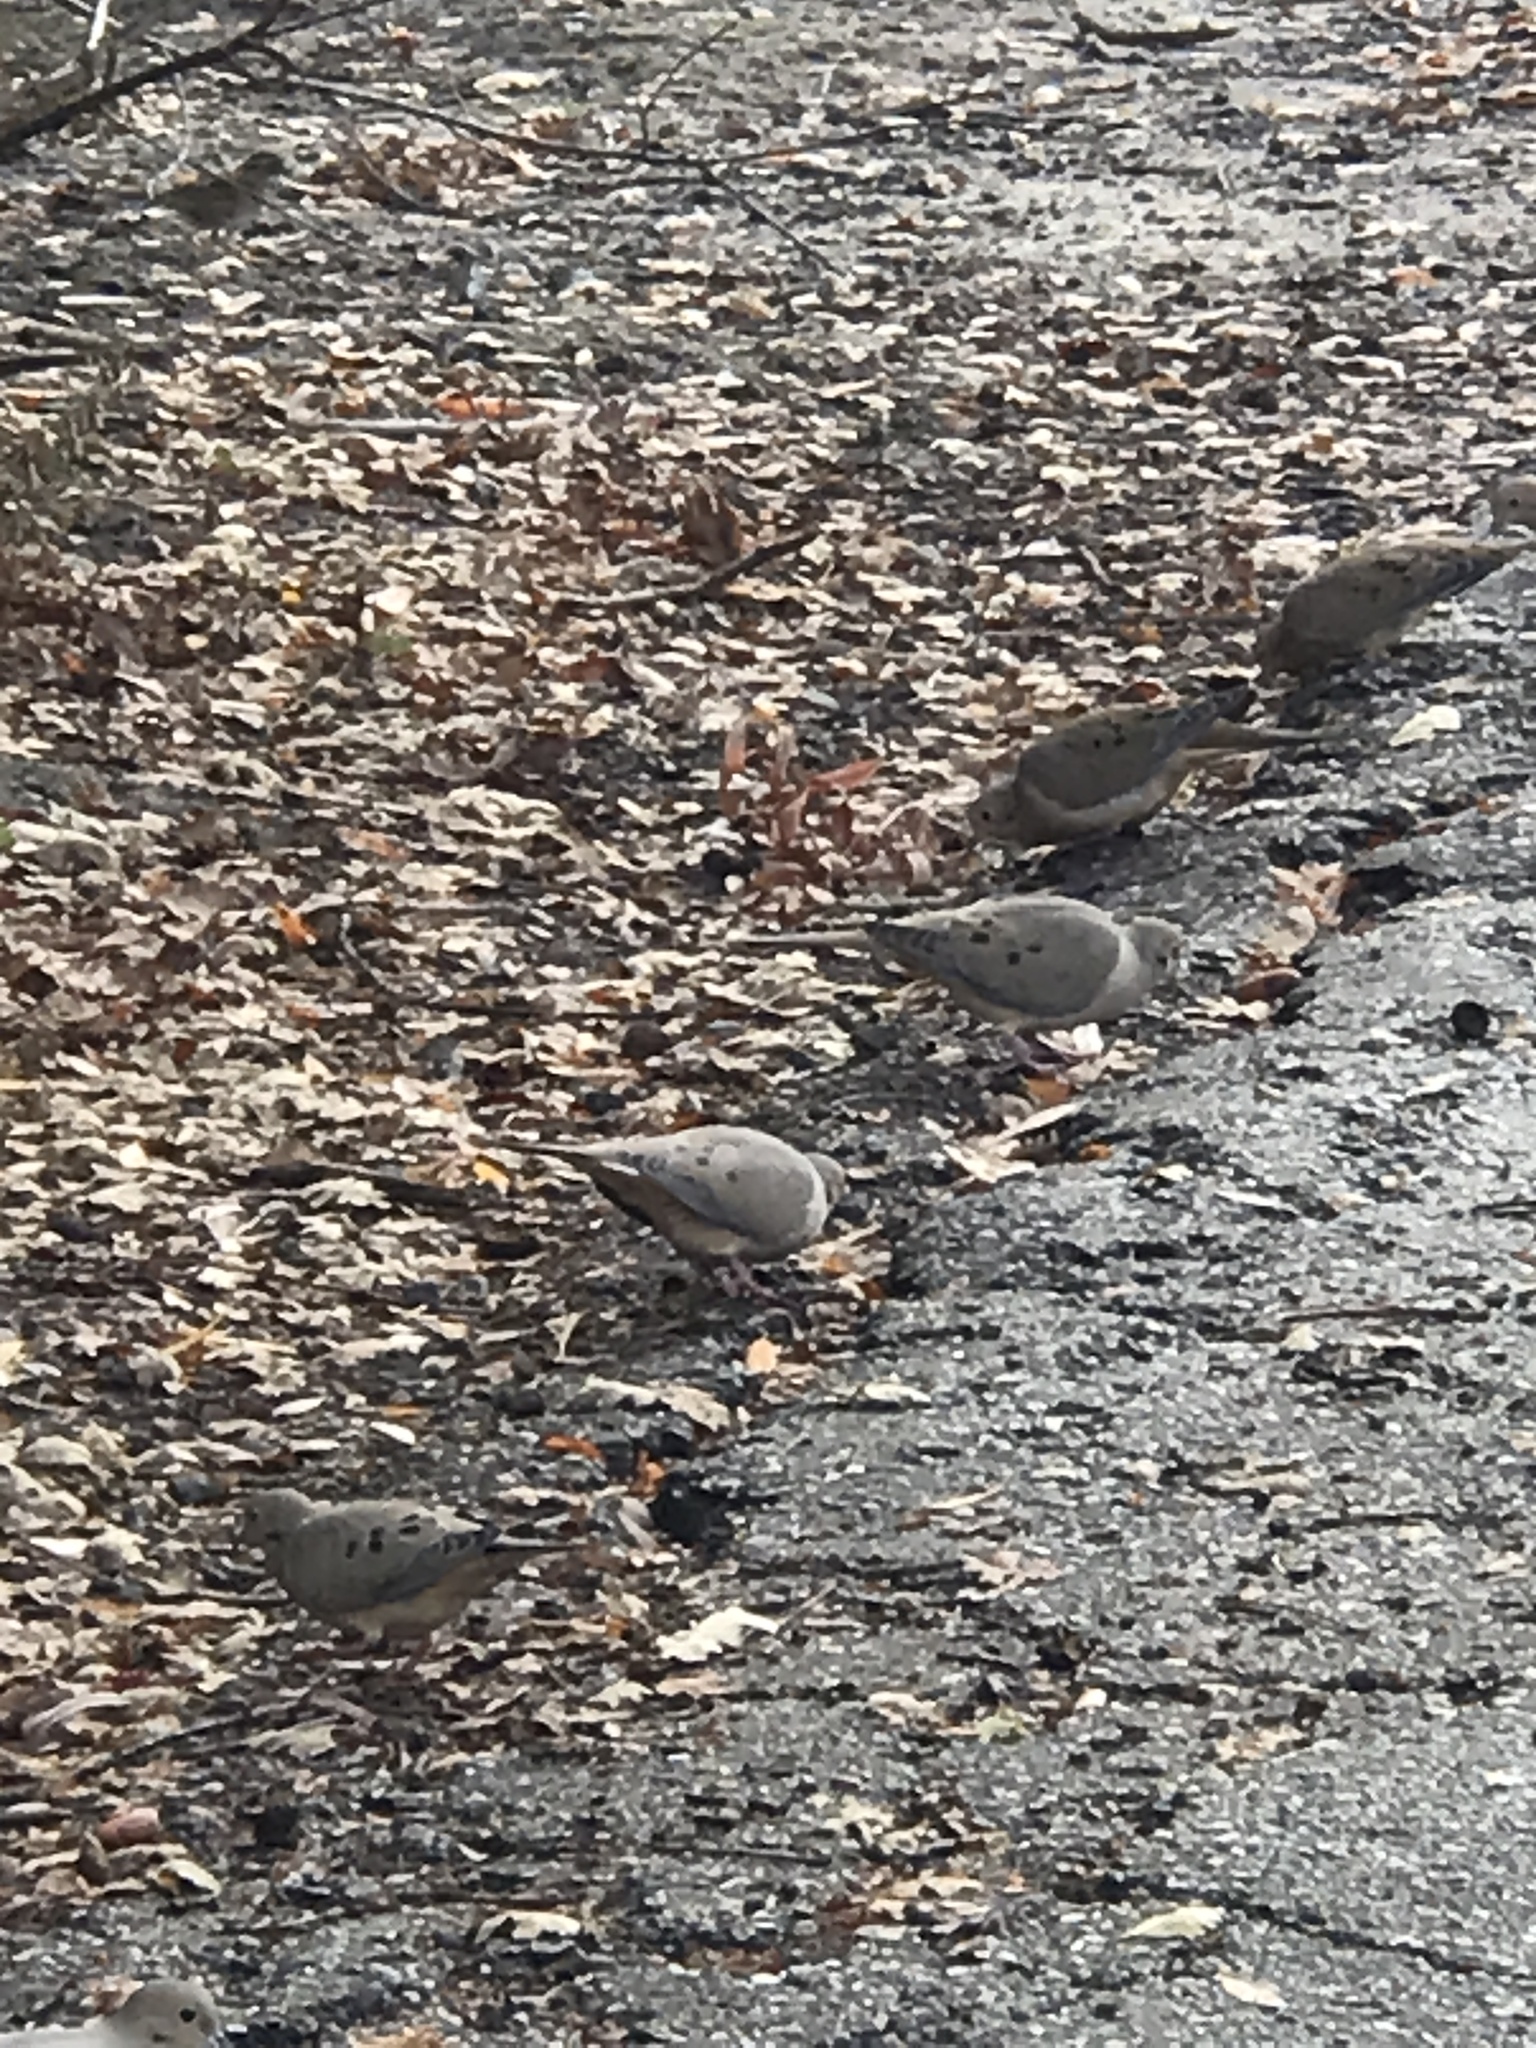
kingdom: Animalia
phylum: Chordata
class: Aves
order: Columbiformes
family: Columbidae
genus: Zenaida
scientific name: Zenaida macroura
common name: Mourning dove
